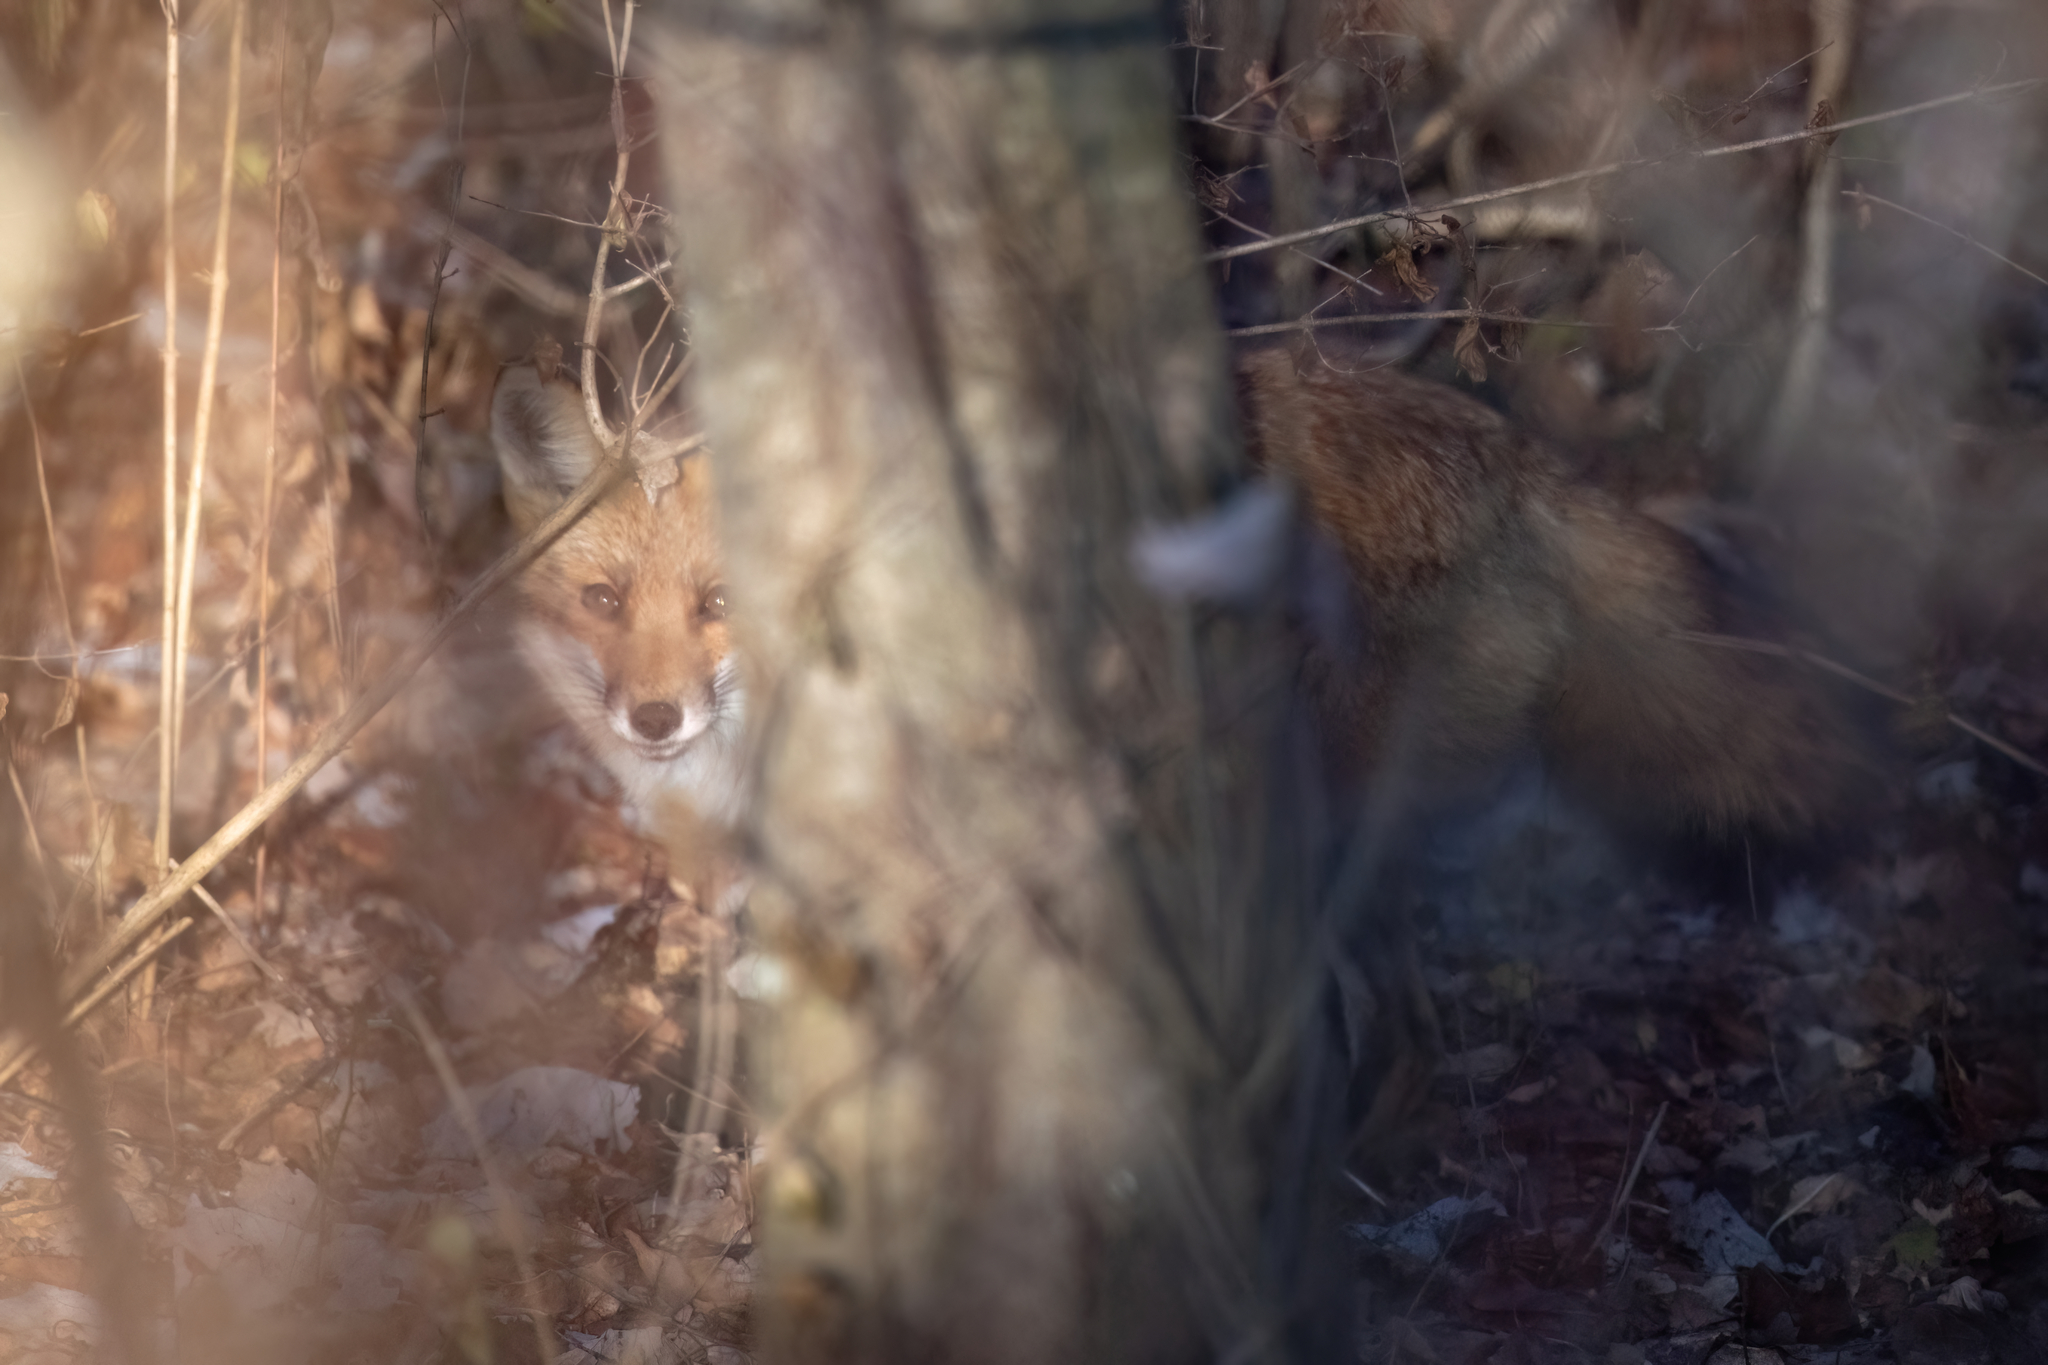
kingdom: Animalia
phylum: Chordata
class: Mammalia
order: Carnivora
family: Canidae
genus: Vulpes
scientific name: Vulpes vulpes
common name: Red fox
